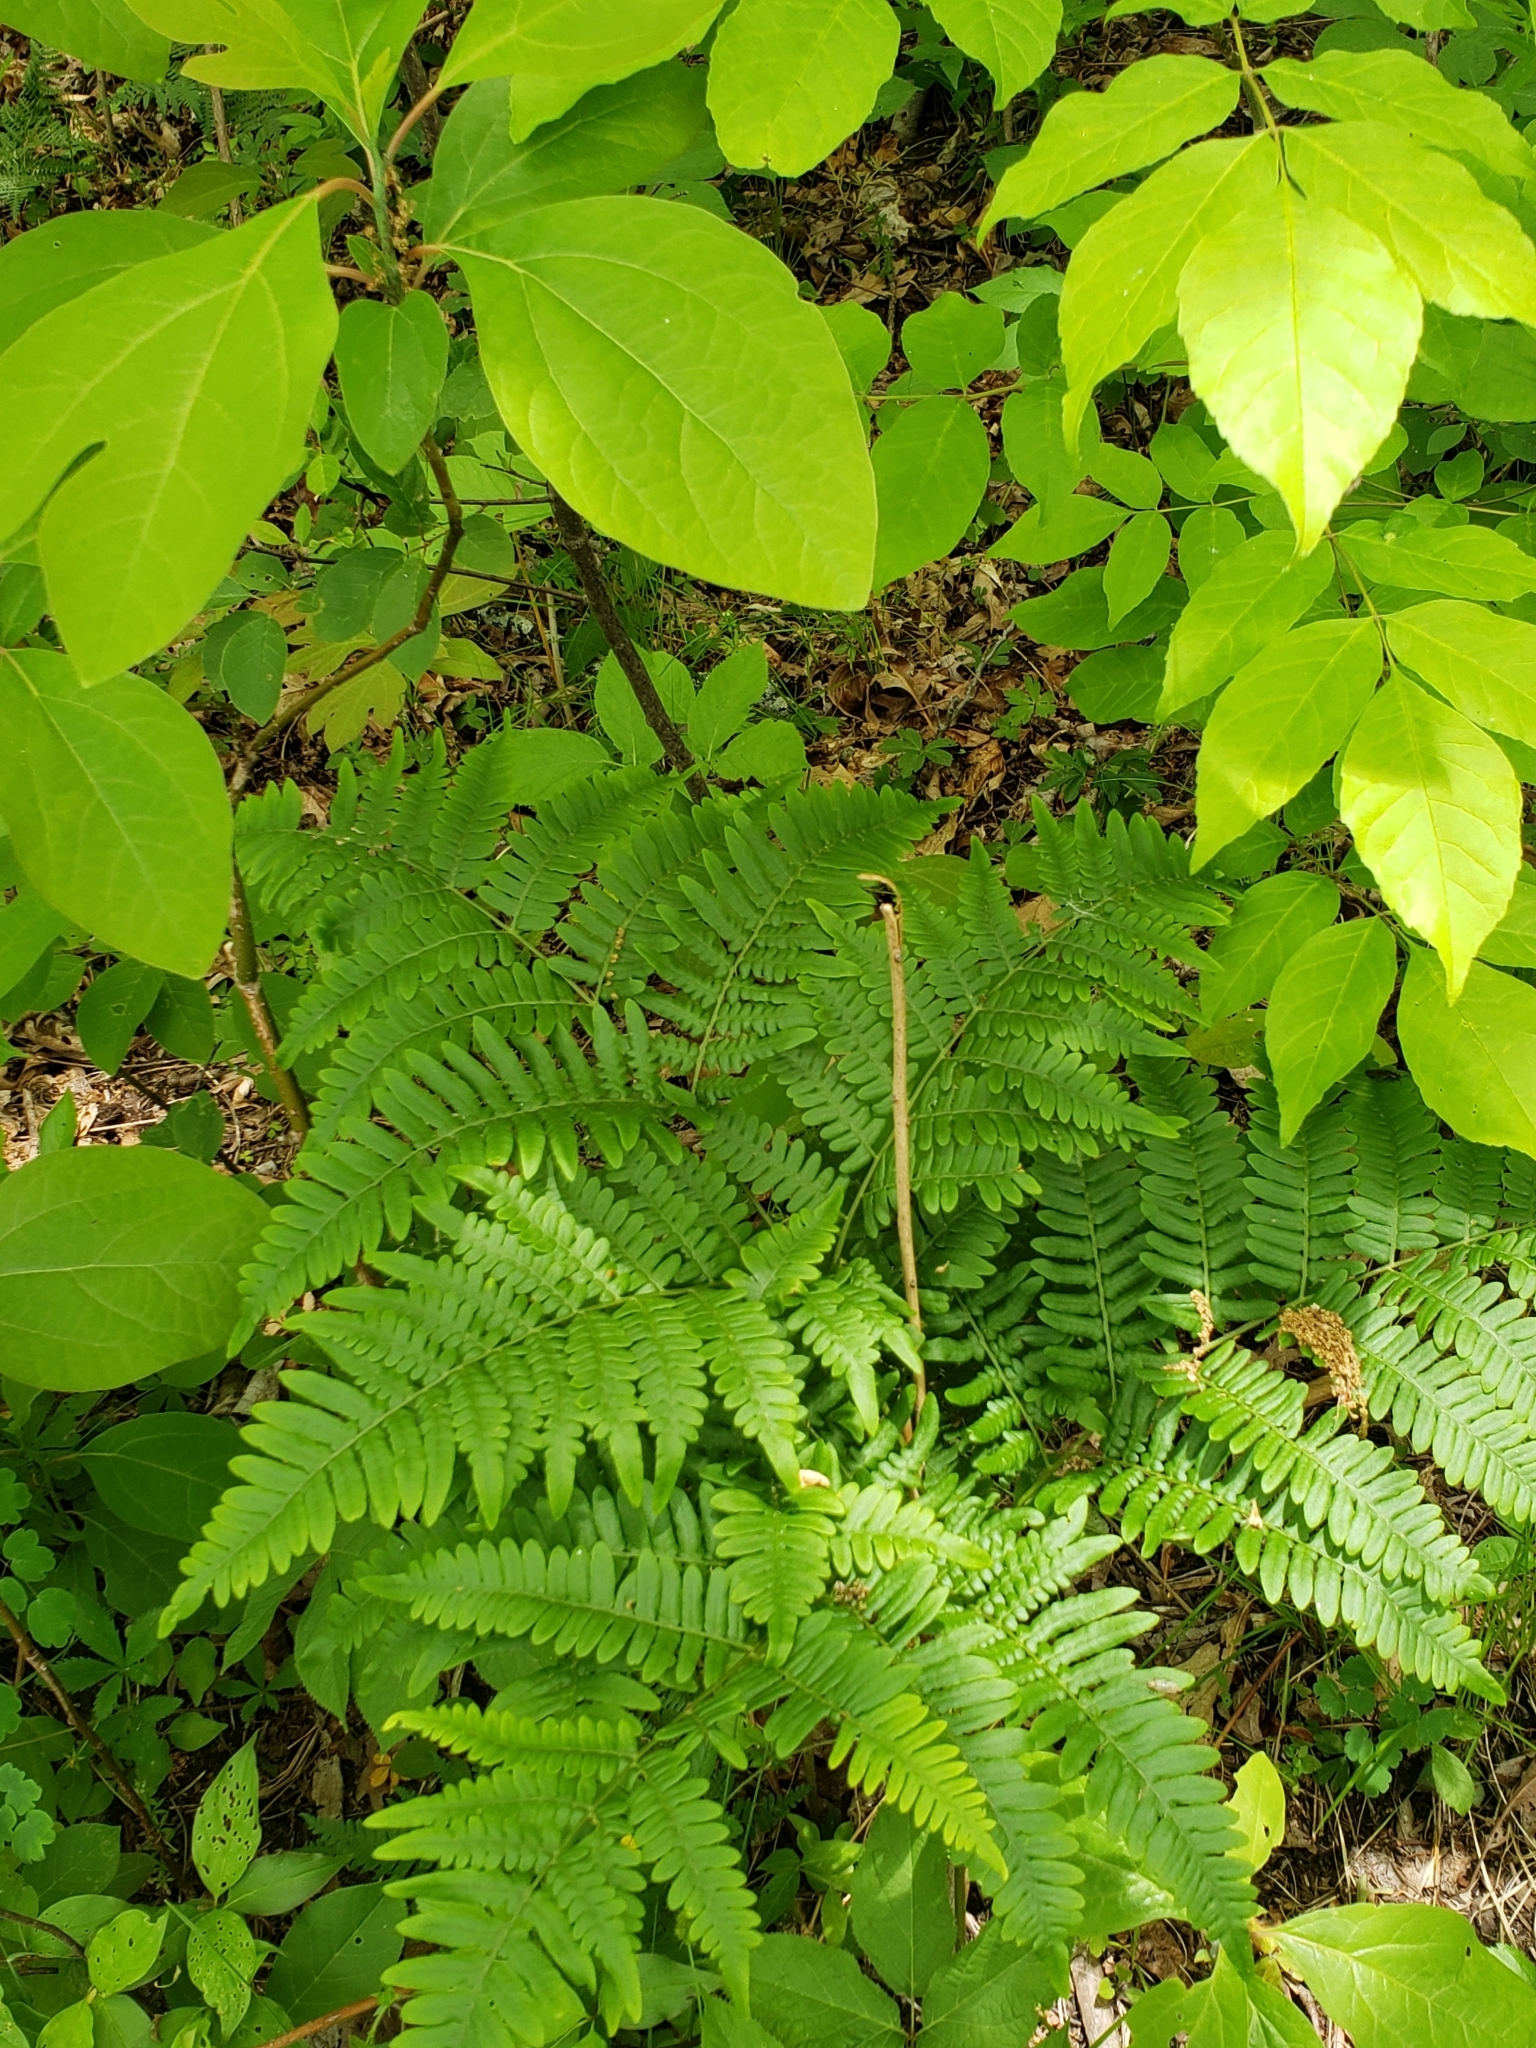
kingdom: Plantae
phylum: Tracheophyta
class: Polypodiopsida
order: Polypodiales
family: Dennstaedtiaceae
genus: Pteridium
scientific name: Pteridium aquilinum
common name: Bracken
